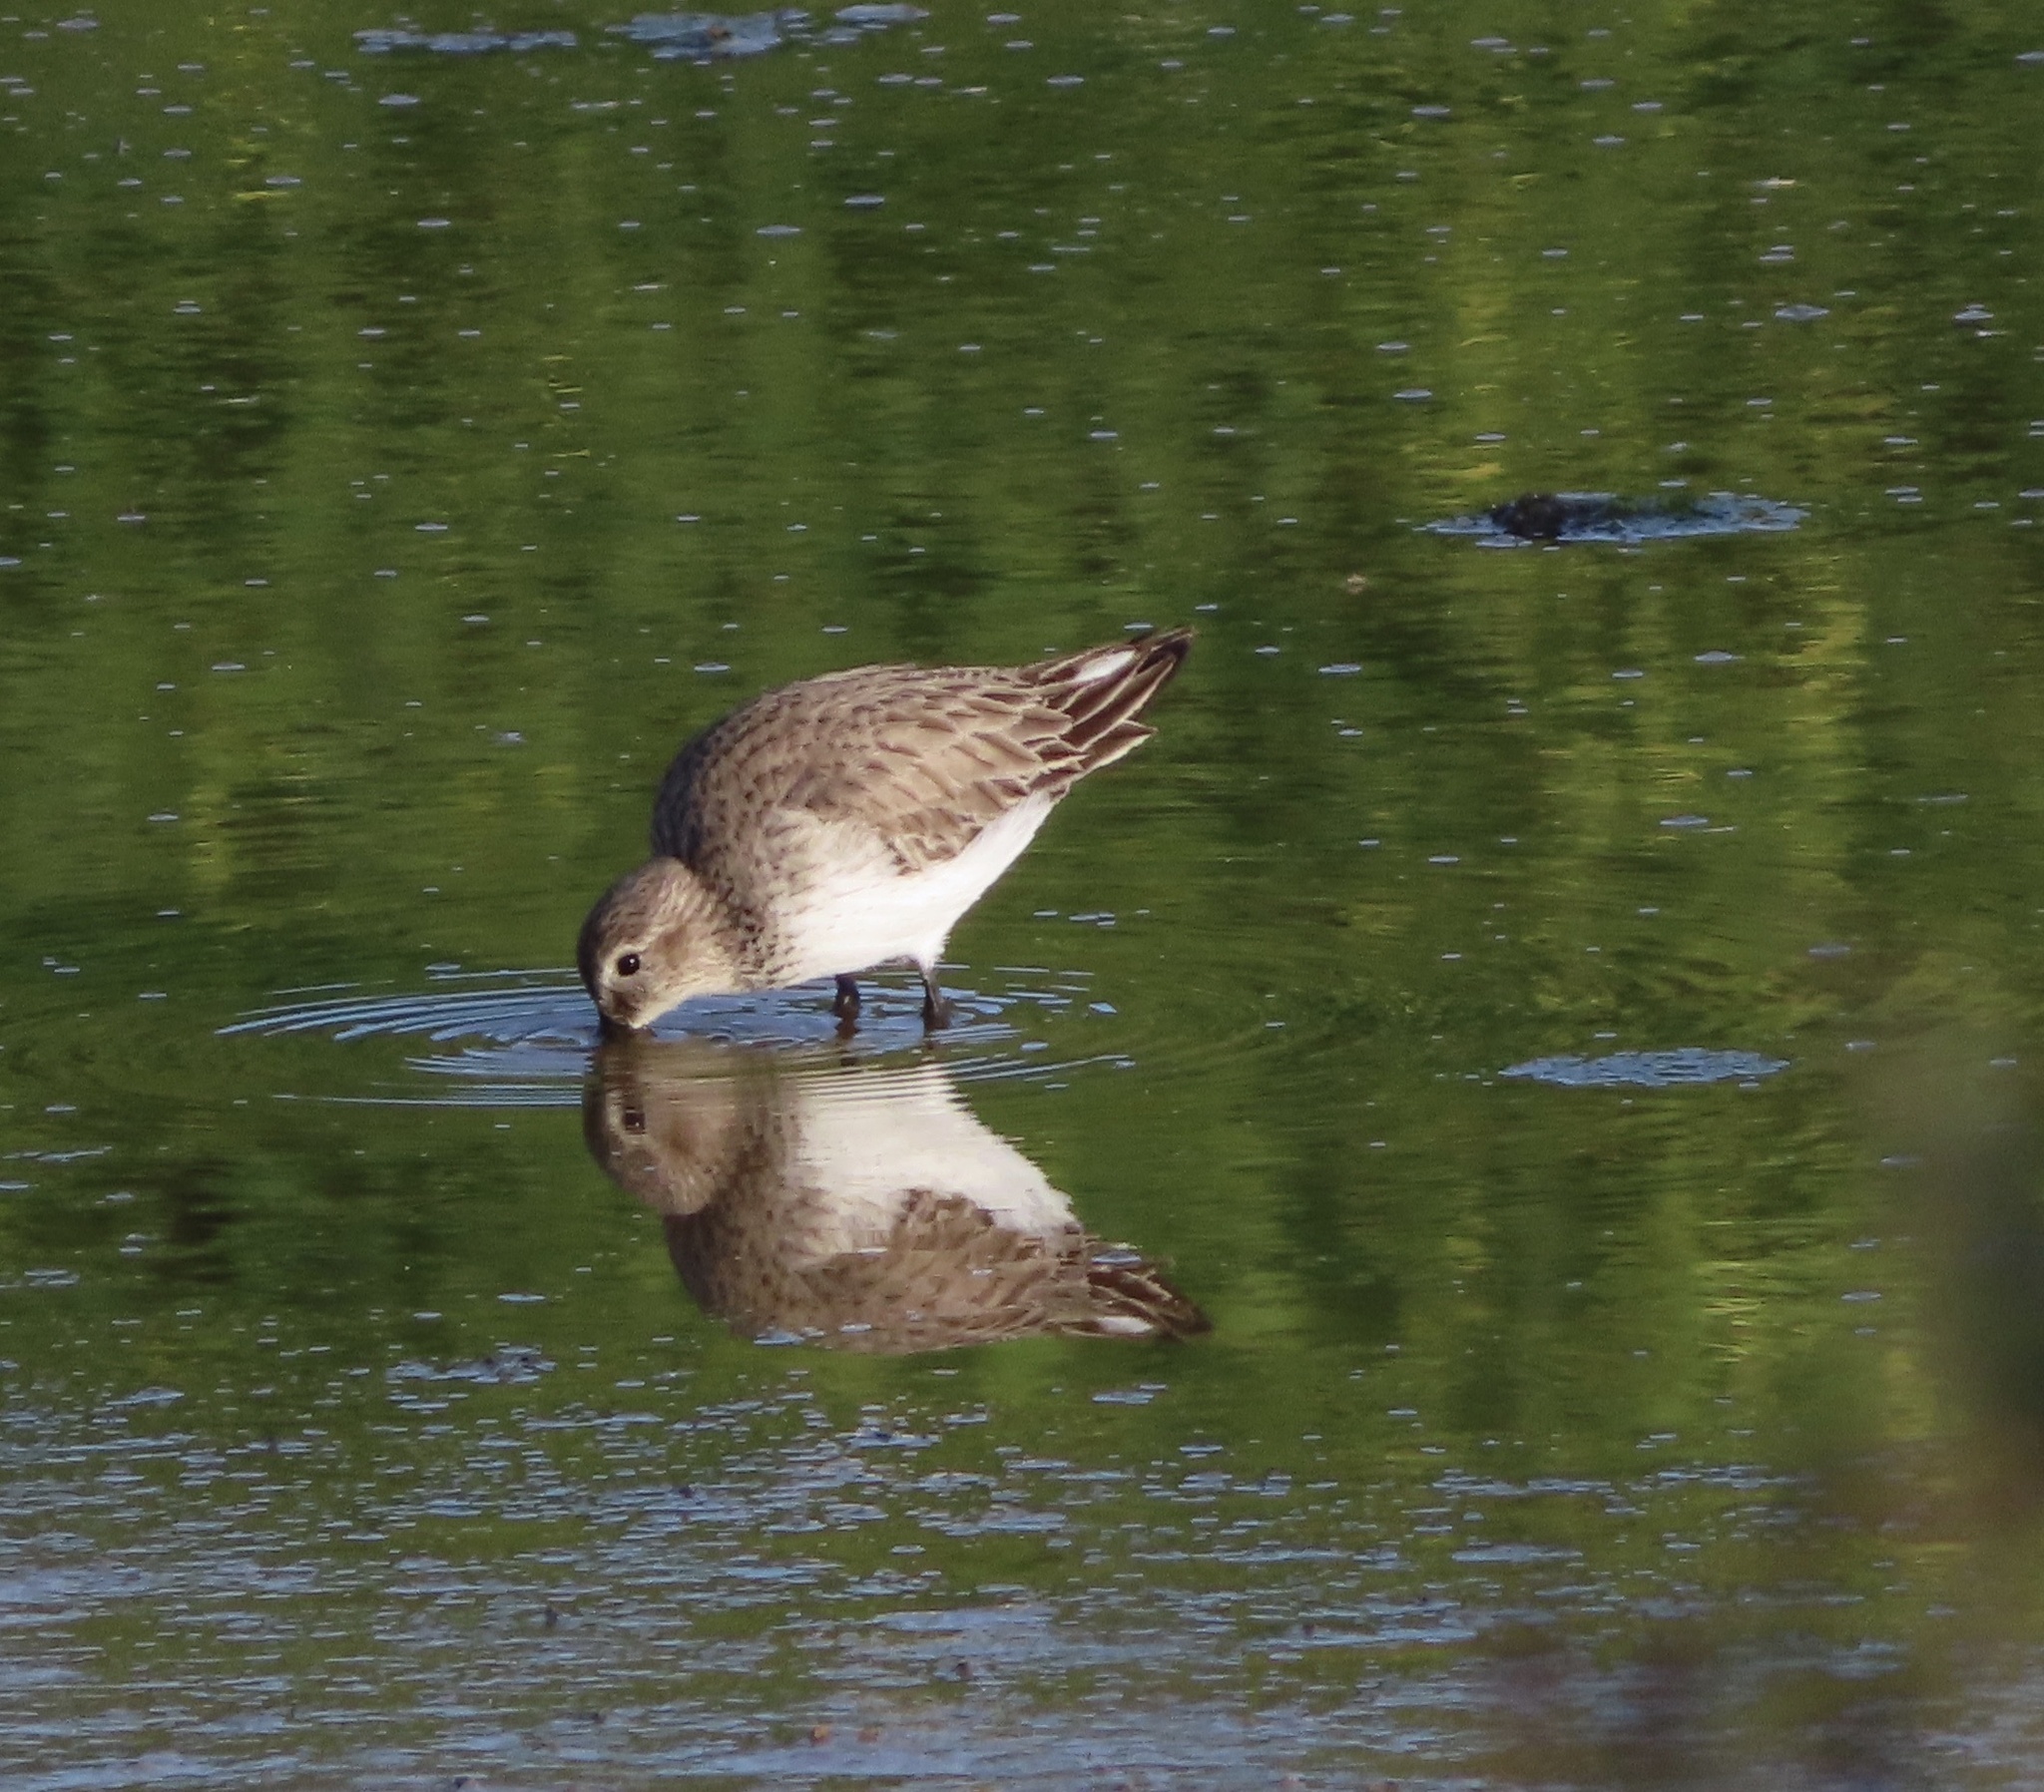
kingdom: Animalia
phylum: Chordata
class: Aves
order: Charadriiformes
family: Scolopacidae
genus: Calidris
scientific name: Calidris alpina
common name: Dunlin
